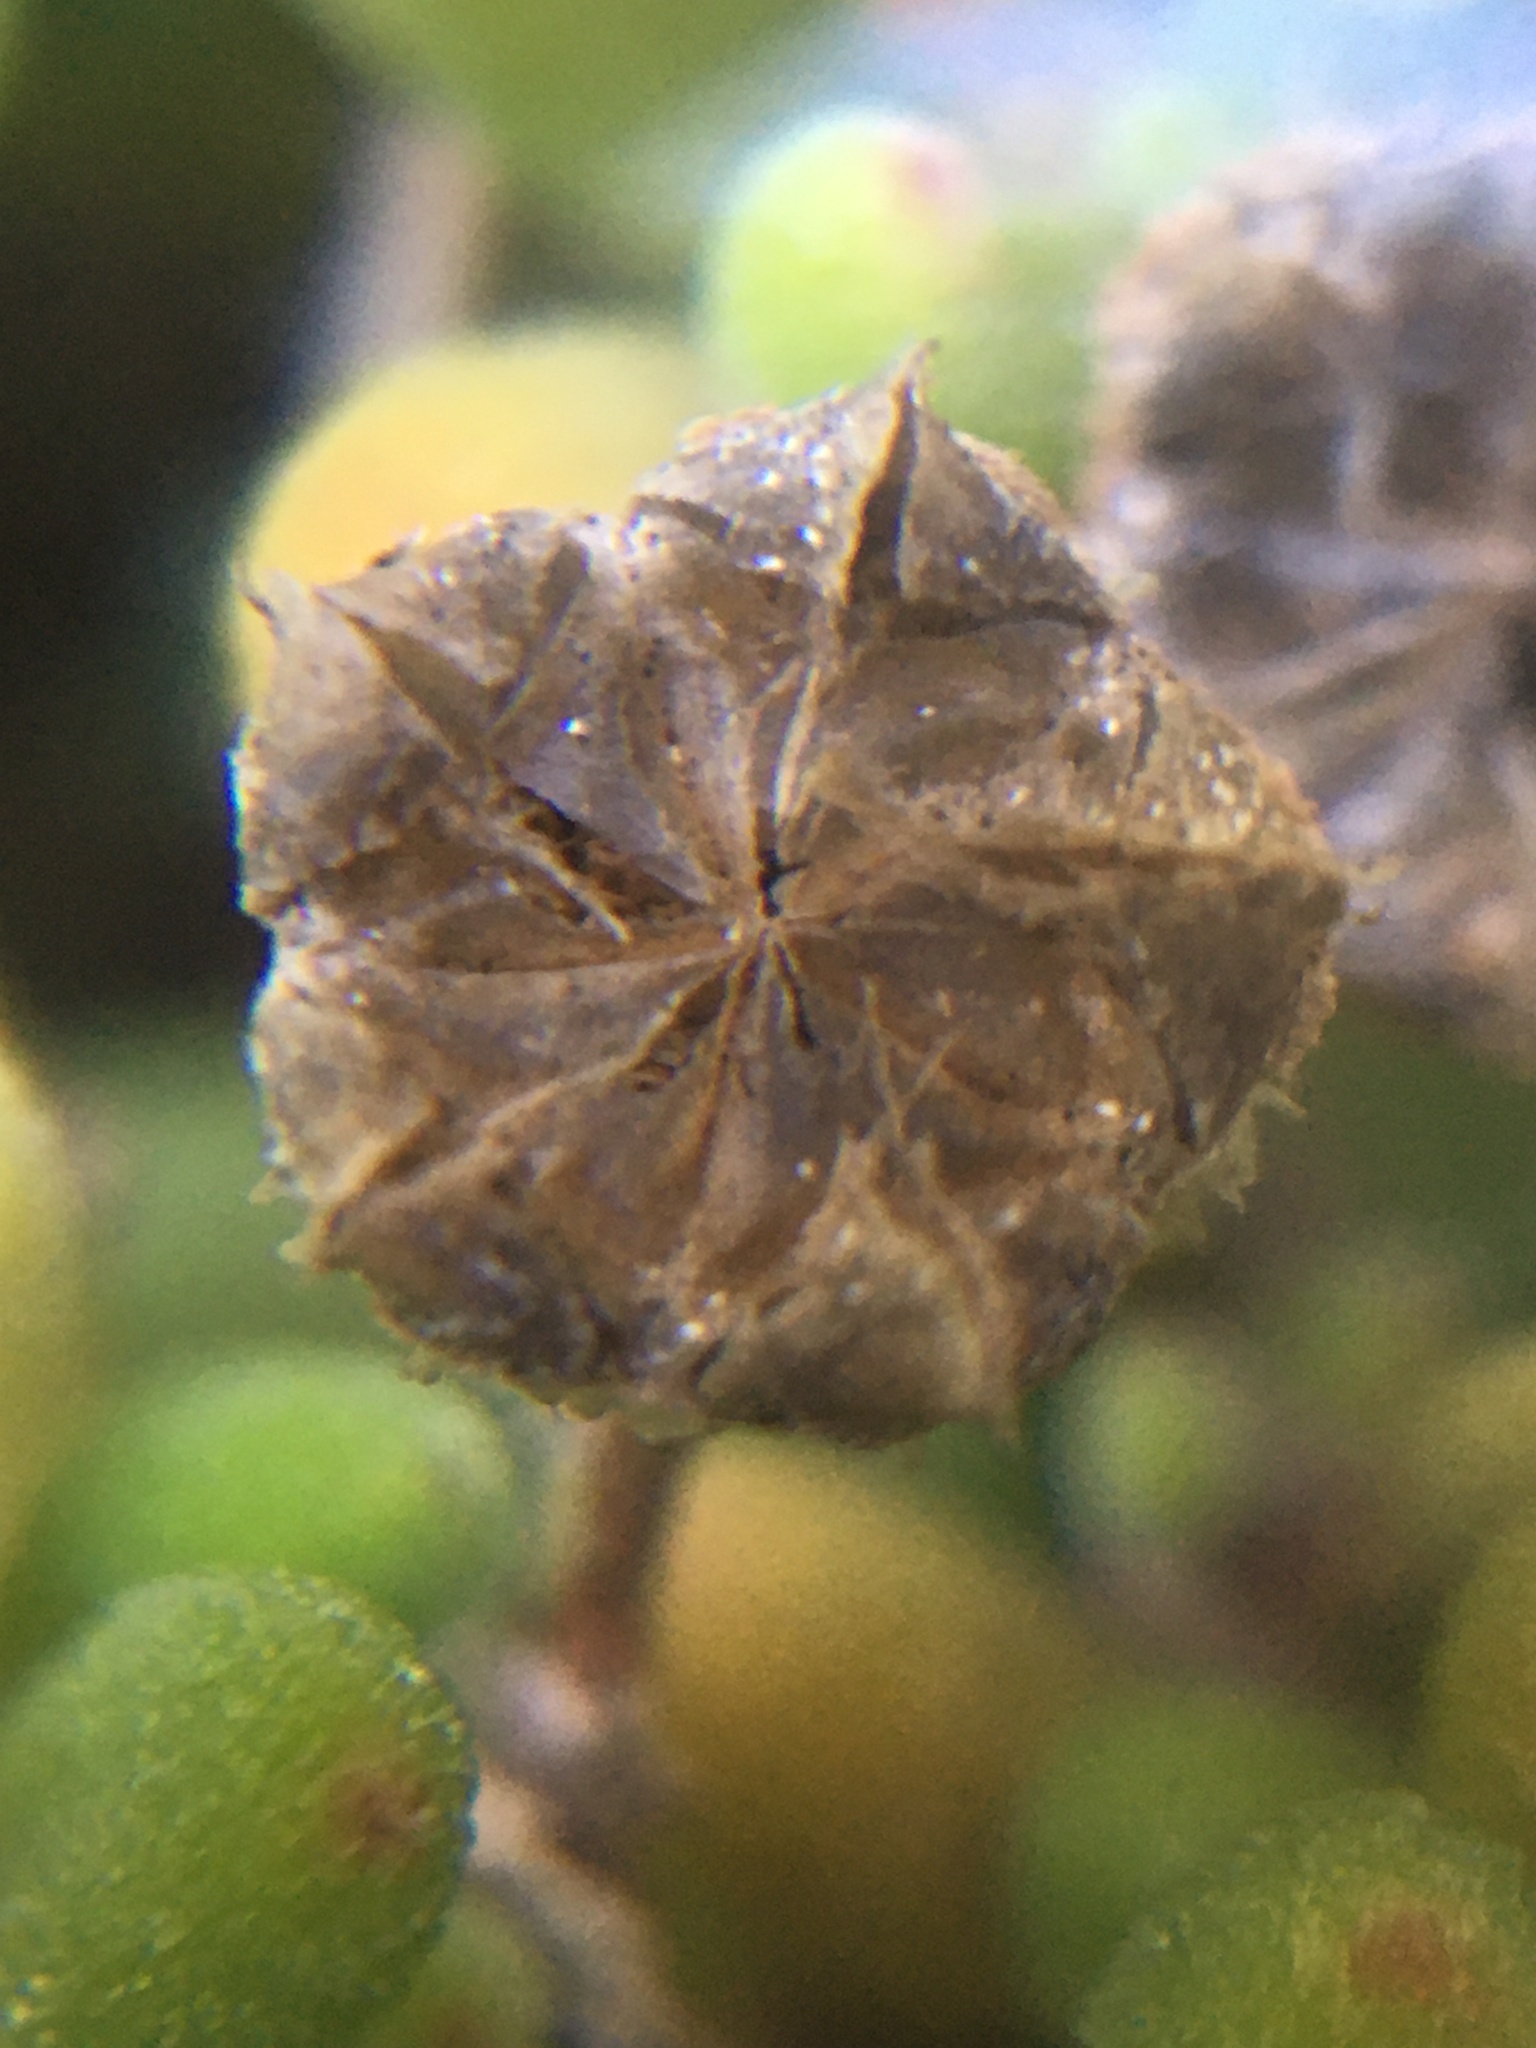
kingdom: Plantae
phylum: Tracheophyta
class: Magnoliopsida
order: Caryophyllales
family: Aizoaceae
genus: Drosanthemum
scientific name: Drosanthemum candens
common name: Rodondo-creeper
